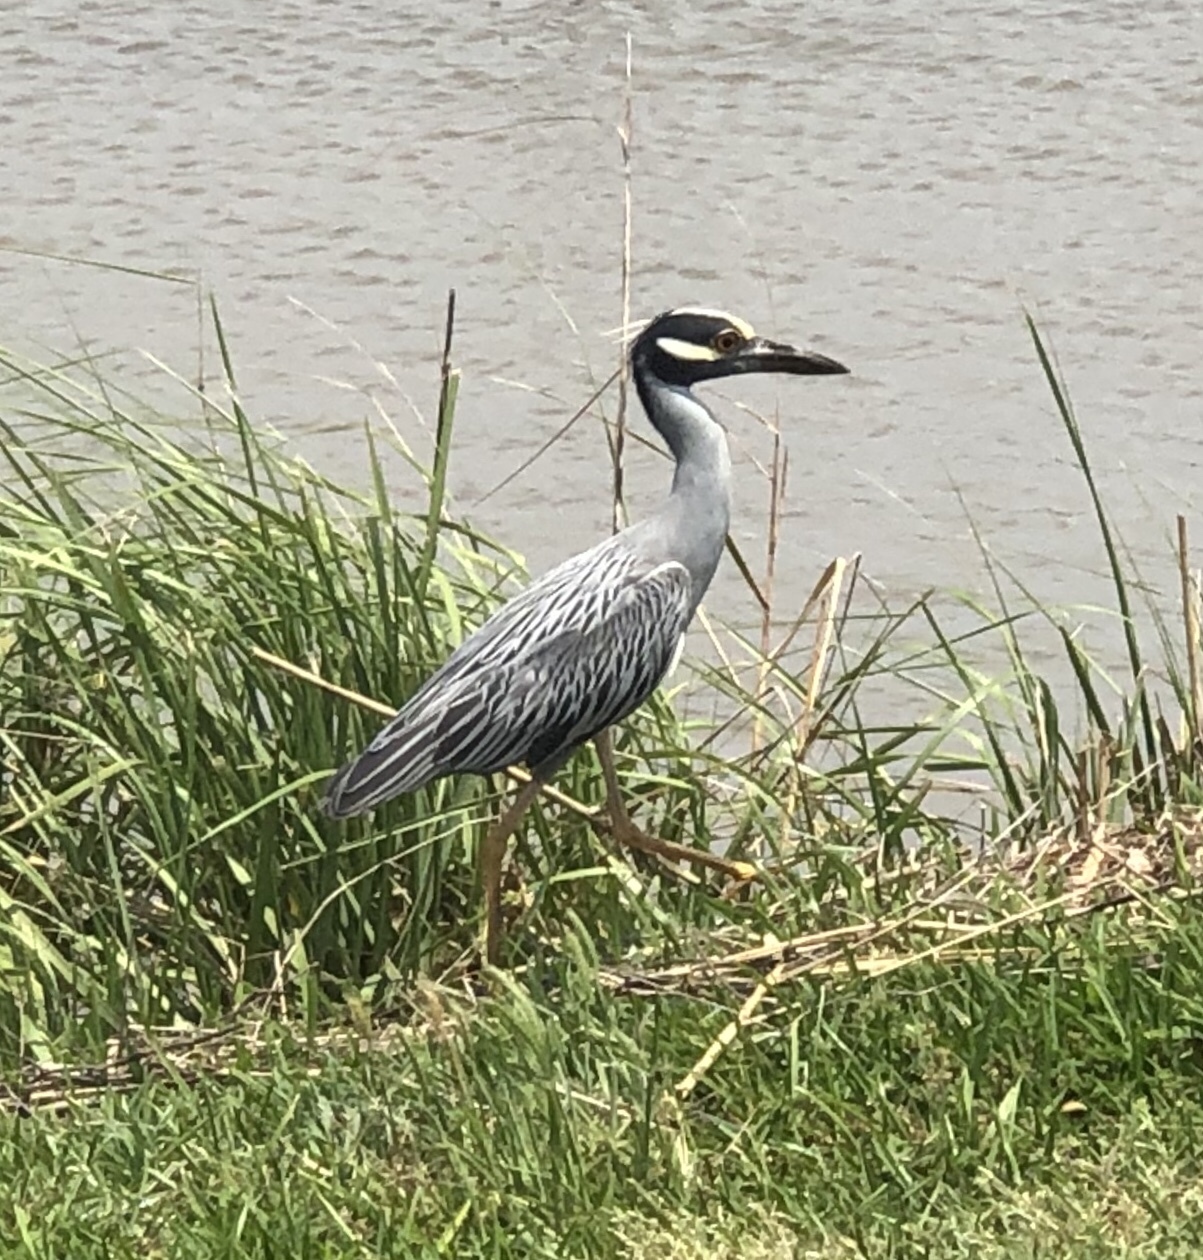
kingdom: Animalia
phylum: Chordata
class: Aves
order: Pelecaniformes
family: Ardeidae
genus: Nyctanassa
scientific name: Nyctanassa violacea
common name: Yellow-crowned night heron
